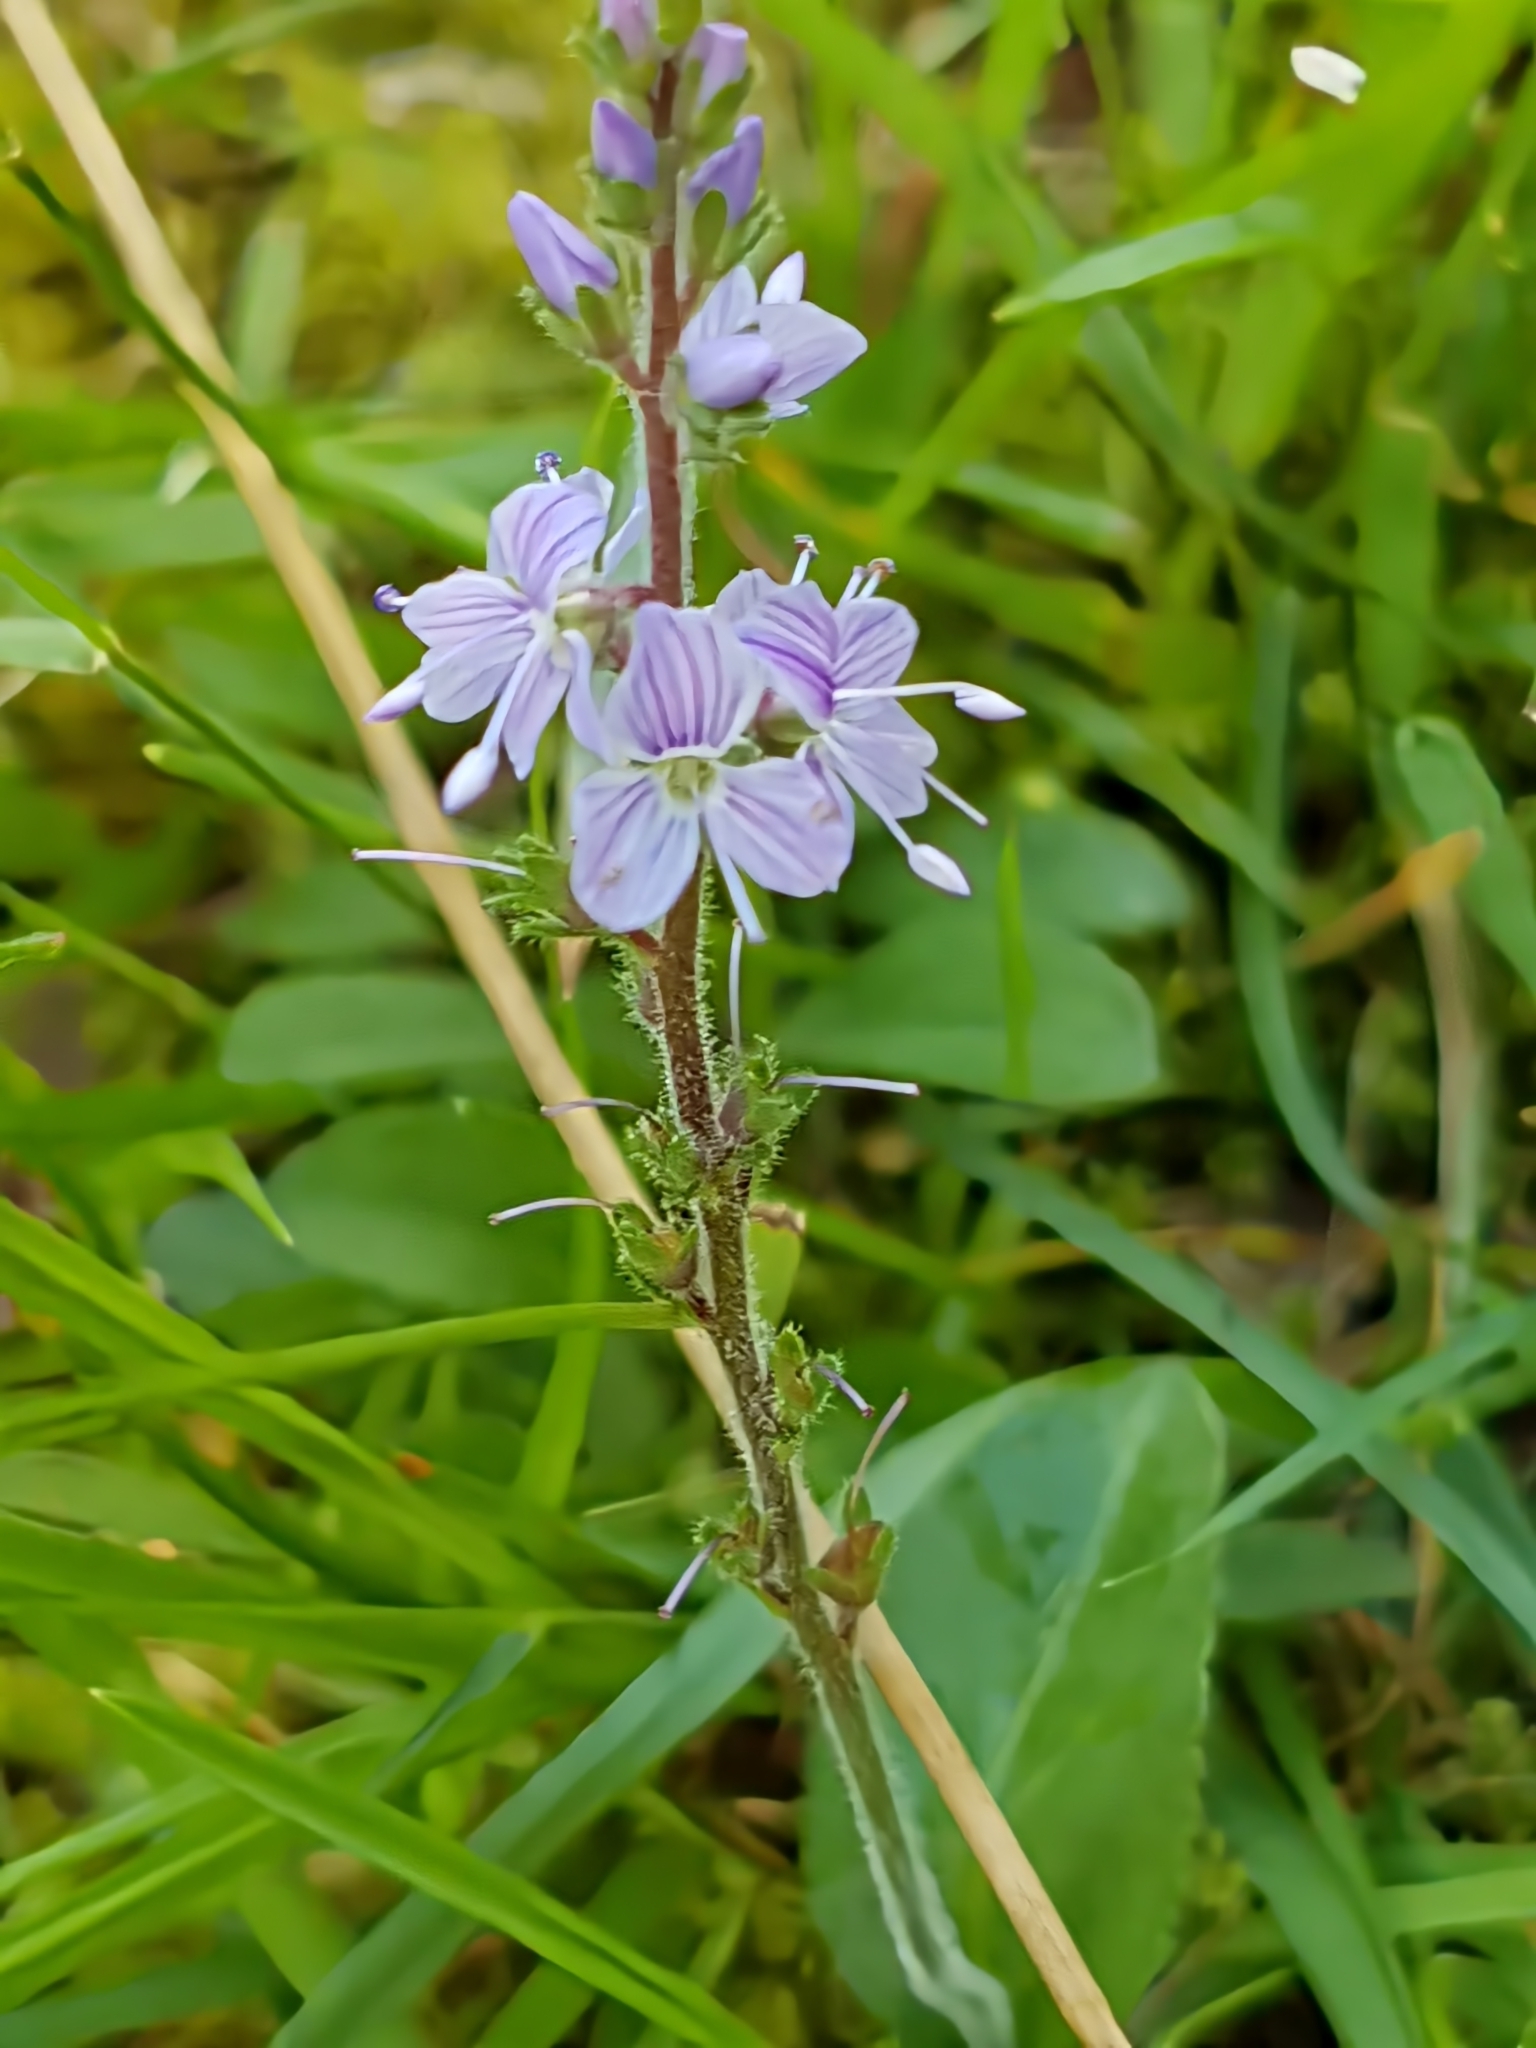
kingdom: Plantae
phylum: Tracheophyta
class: Magnoliopsida
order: Lamiales
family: Plantaginaceae
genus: Veronica
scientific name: Veronica officinalis
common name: Common speedwell
